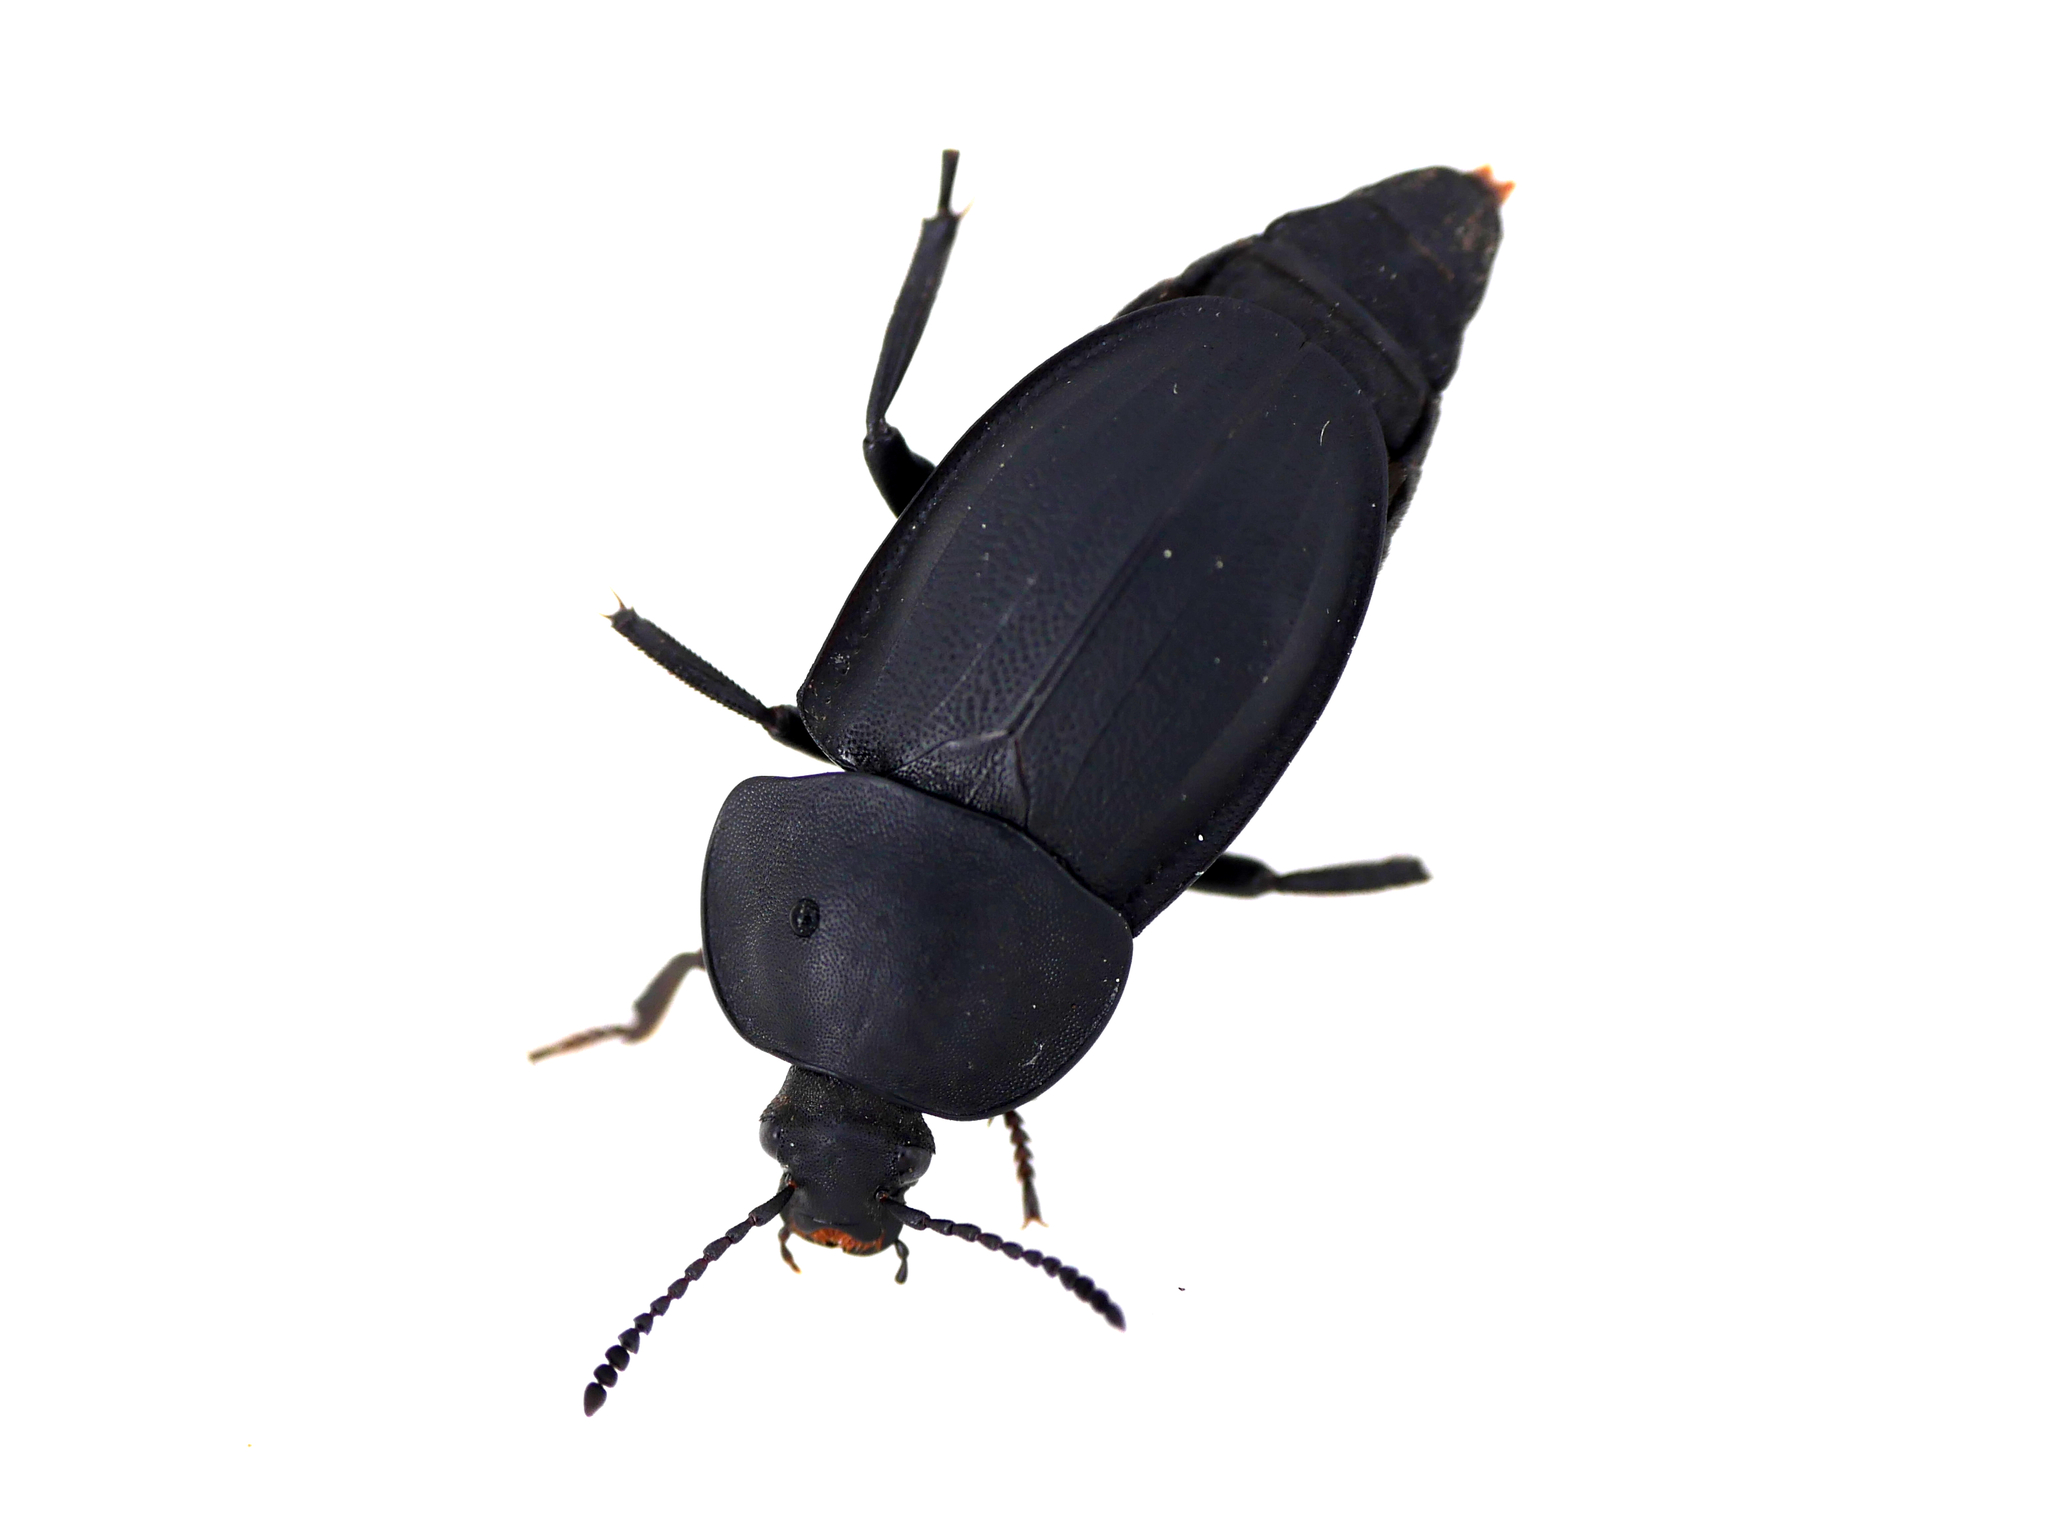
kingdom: Animalia
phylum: Arthropoda
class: Insecta
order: Coleoptera
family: Staphylinidae
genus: Silpha
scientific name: Silpha obscura
